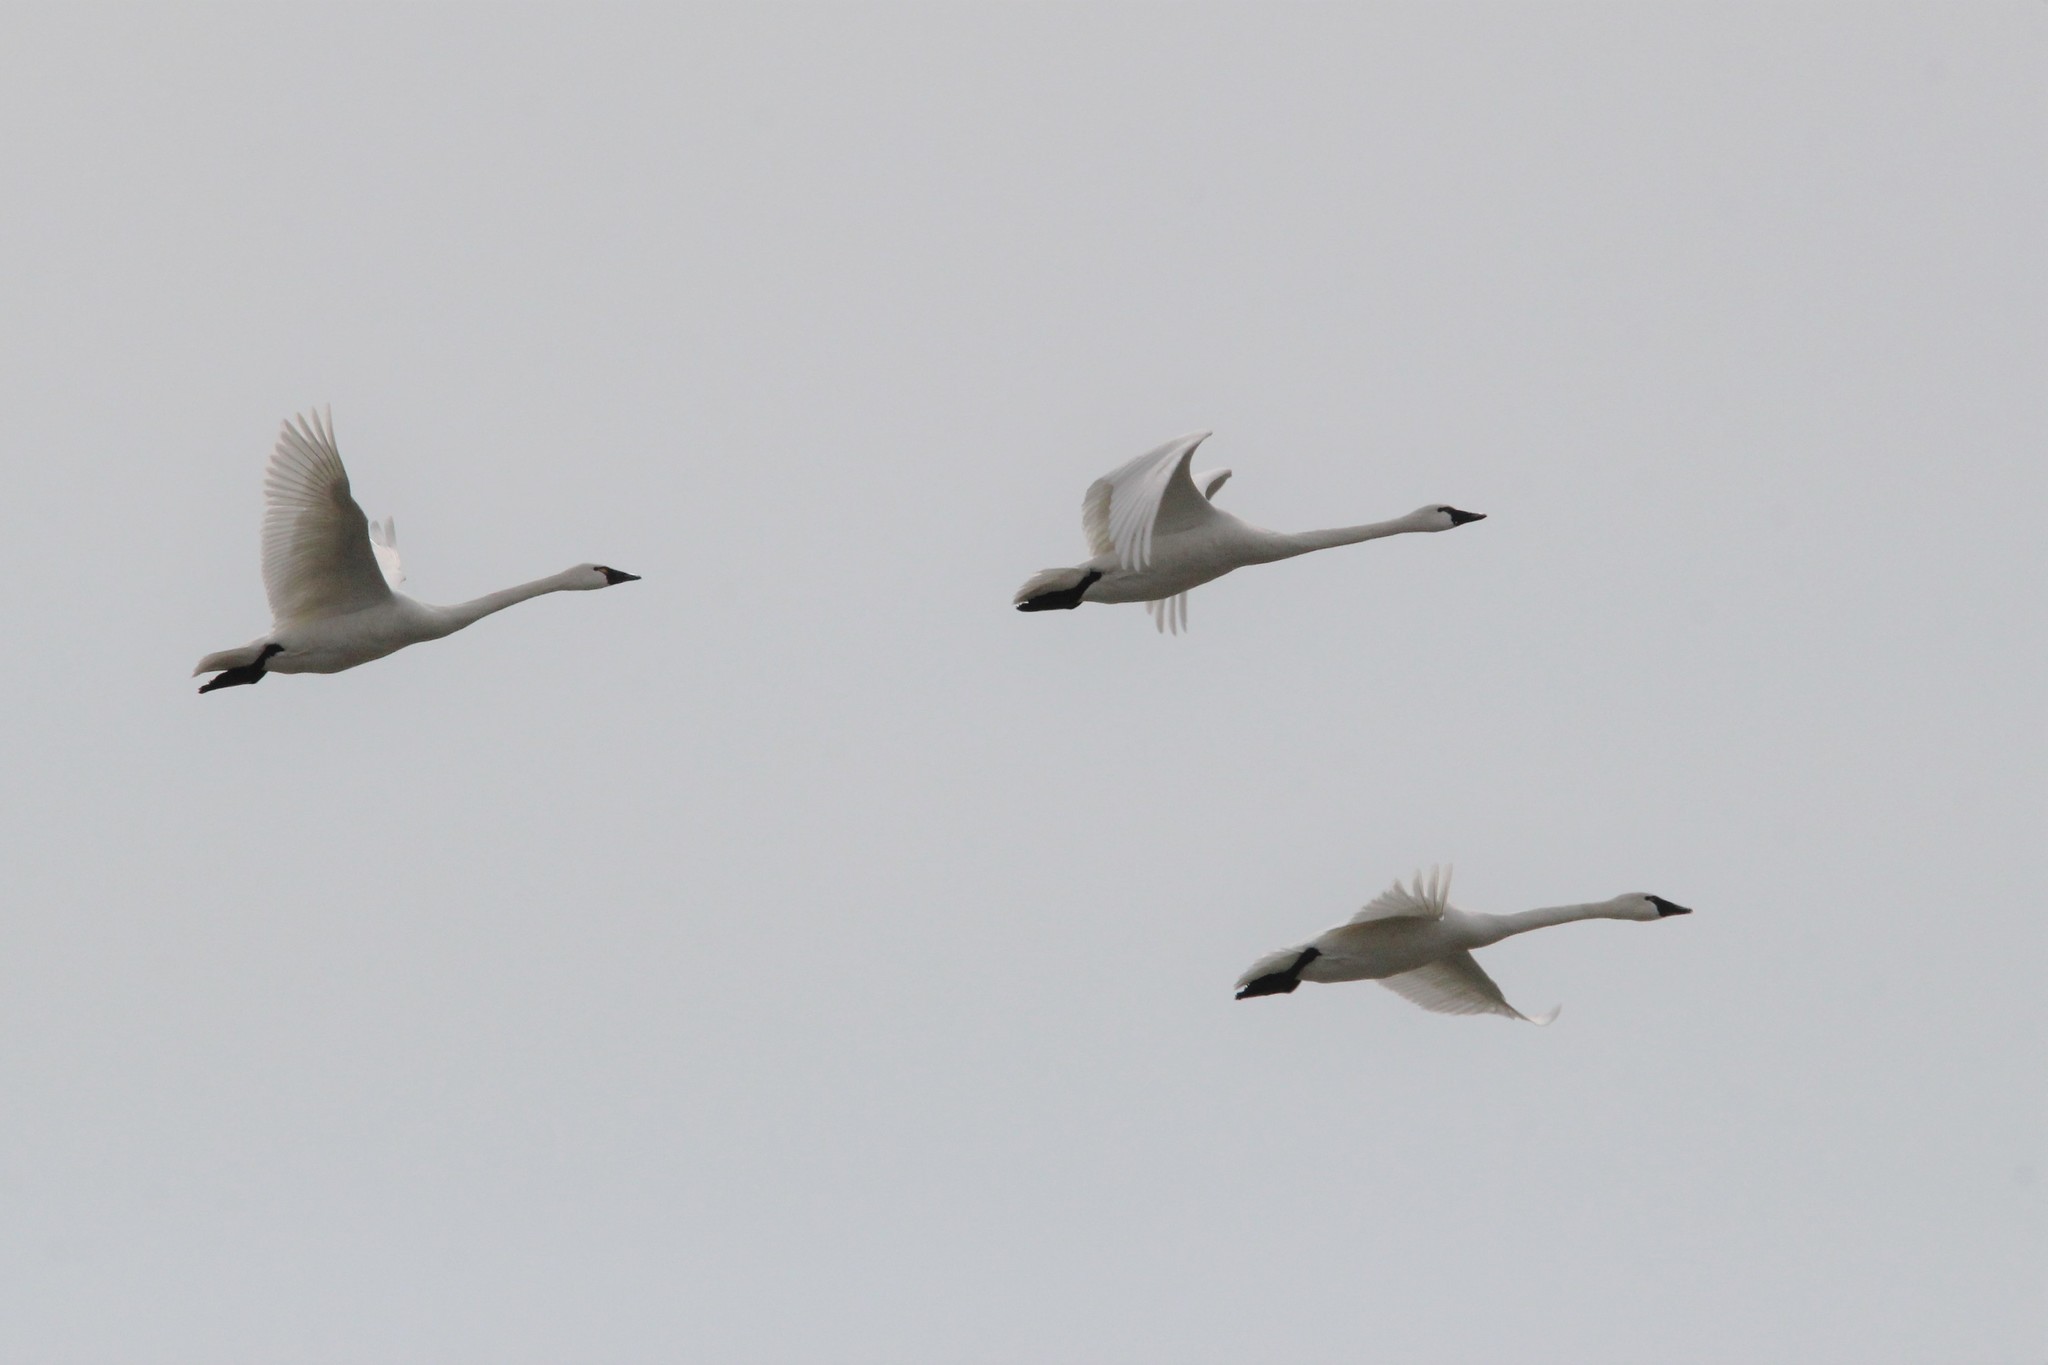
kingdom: Animalia
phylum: Chordata
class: Aves
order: Anseriformes
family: Anatidae
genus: Cygnus
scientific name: Cygnus columbianus
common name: Tundra swan
